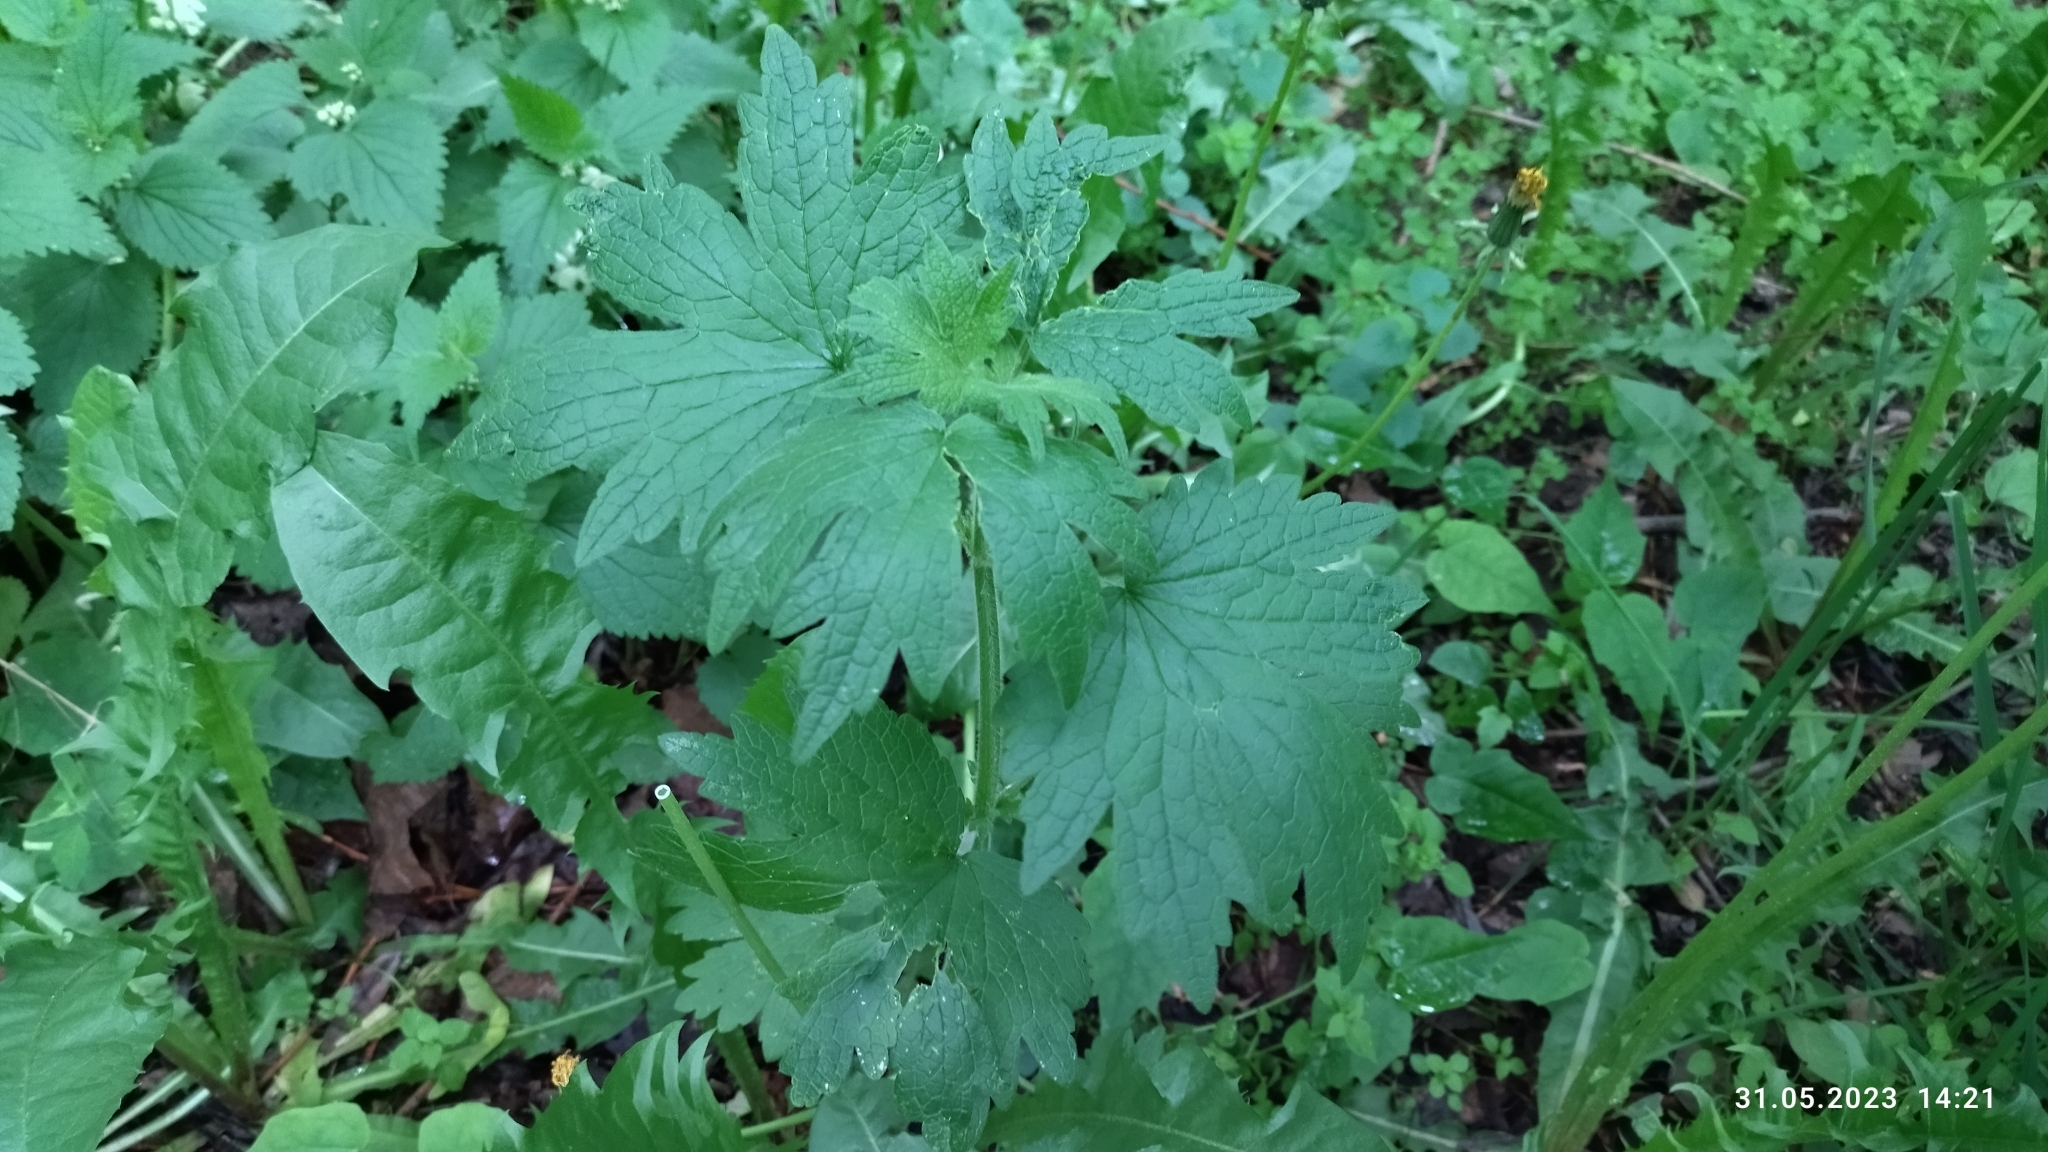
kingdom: Plantae
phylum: Tracheophyta
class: Magnoliopsida
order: Lamiales
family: Lamiaceae
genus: Leonurus
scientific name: Leonurus quinquelobatus
